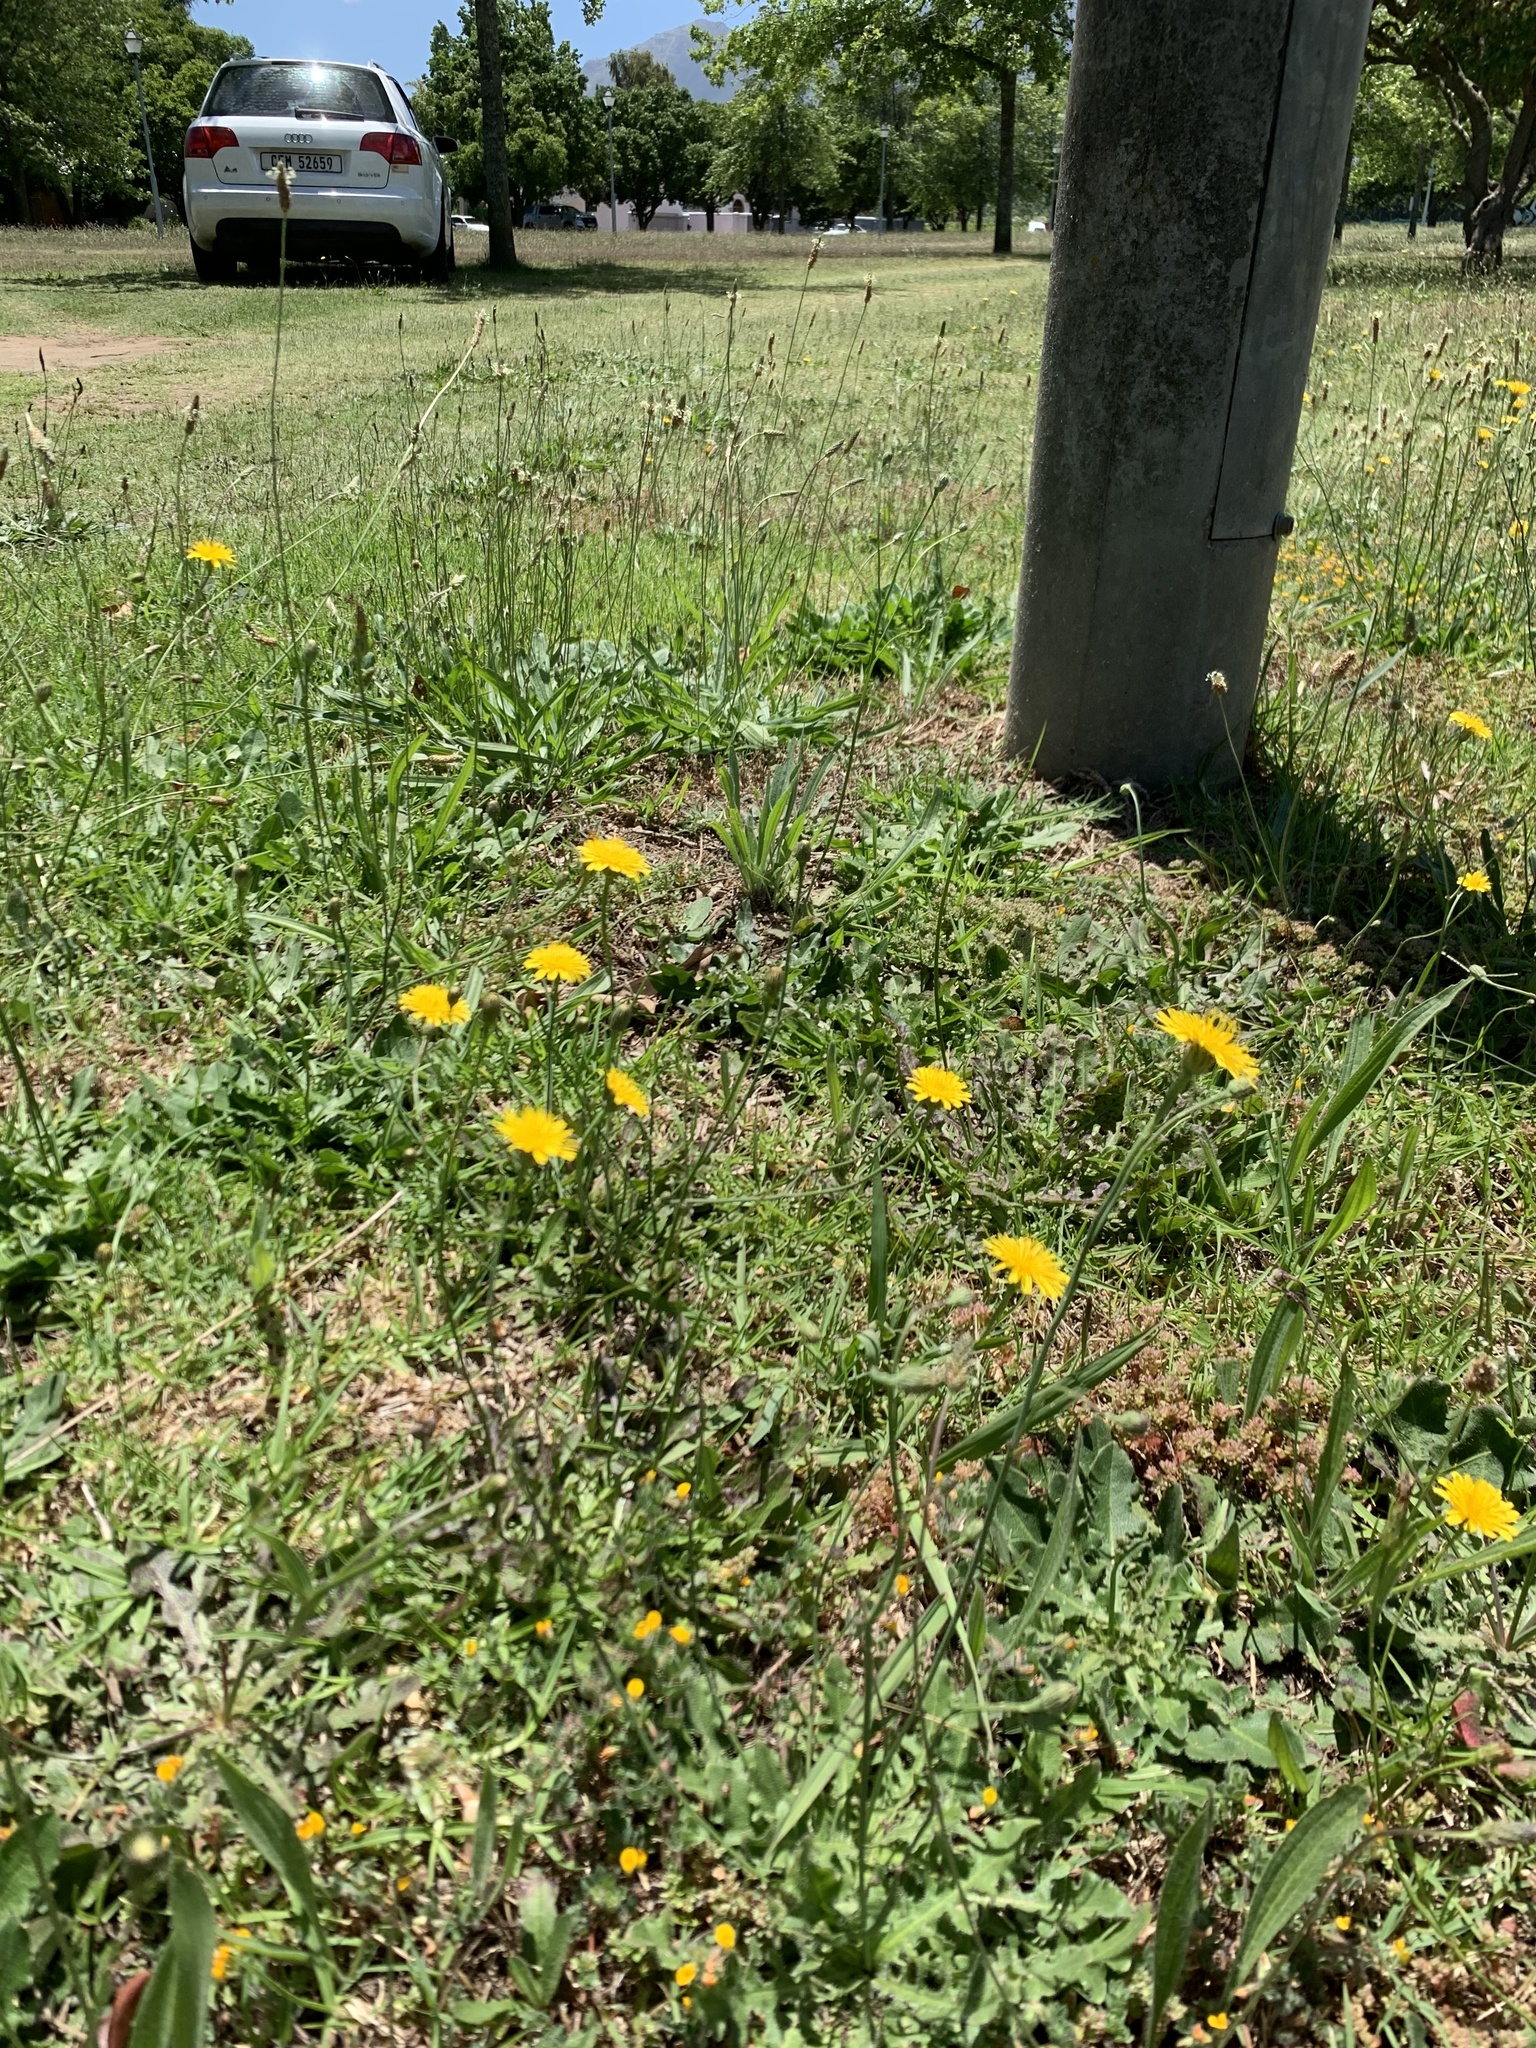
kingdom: Plantae
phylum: Tracheophyta
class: Magnoliopsida
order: Asterales
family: Asteraceae
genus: Hypochaeris
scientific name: Hypochaeris radicata
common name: Flatweed
